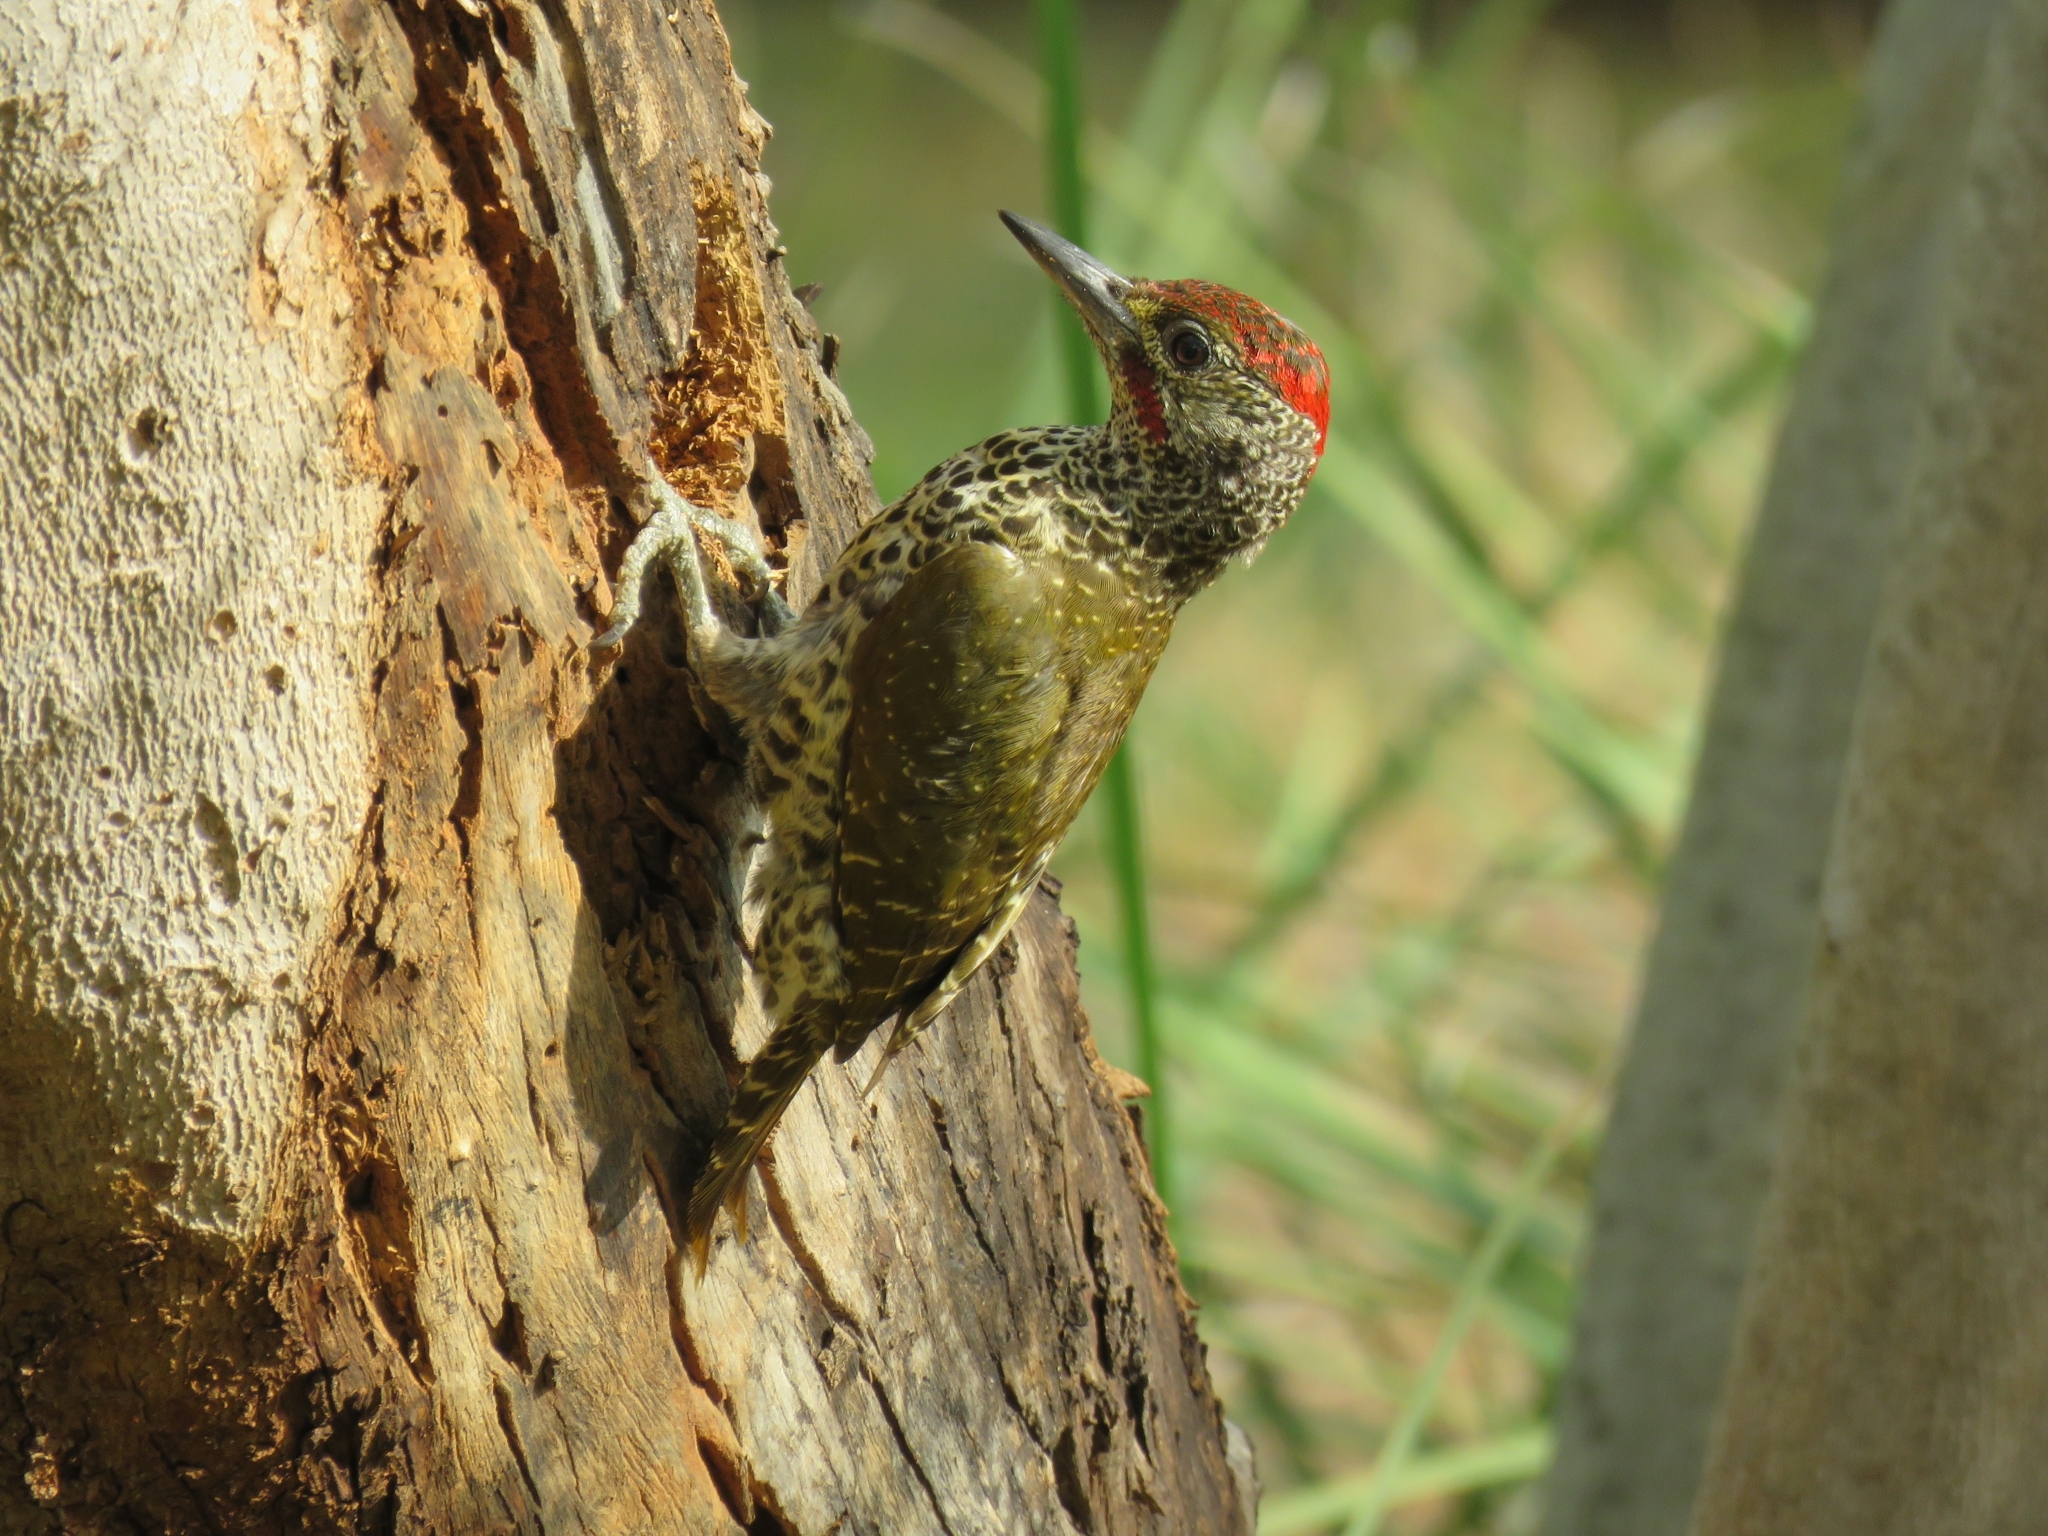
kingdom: Animalia
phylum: Chordata
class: Aves
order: Piciformes
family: Picidae
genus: Campethera
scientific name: Campethera notata
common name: Knysna woodpecker
